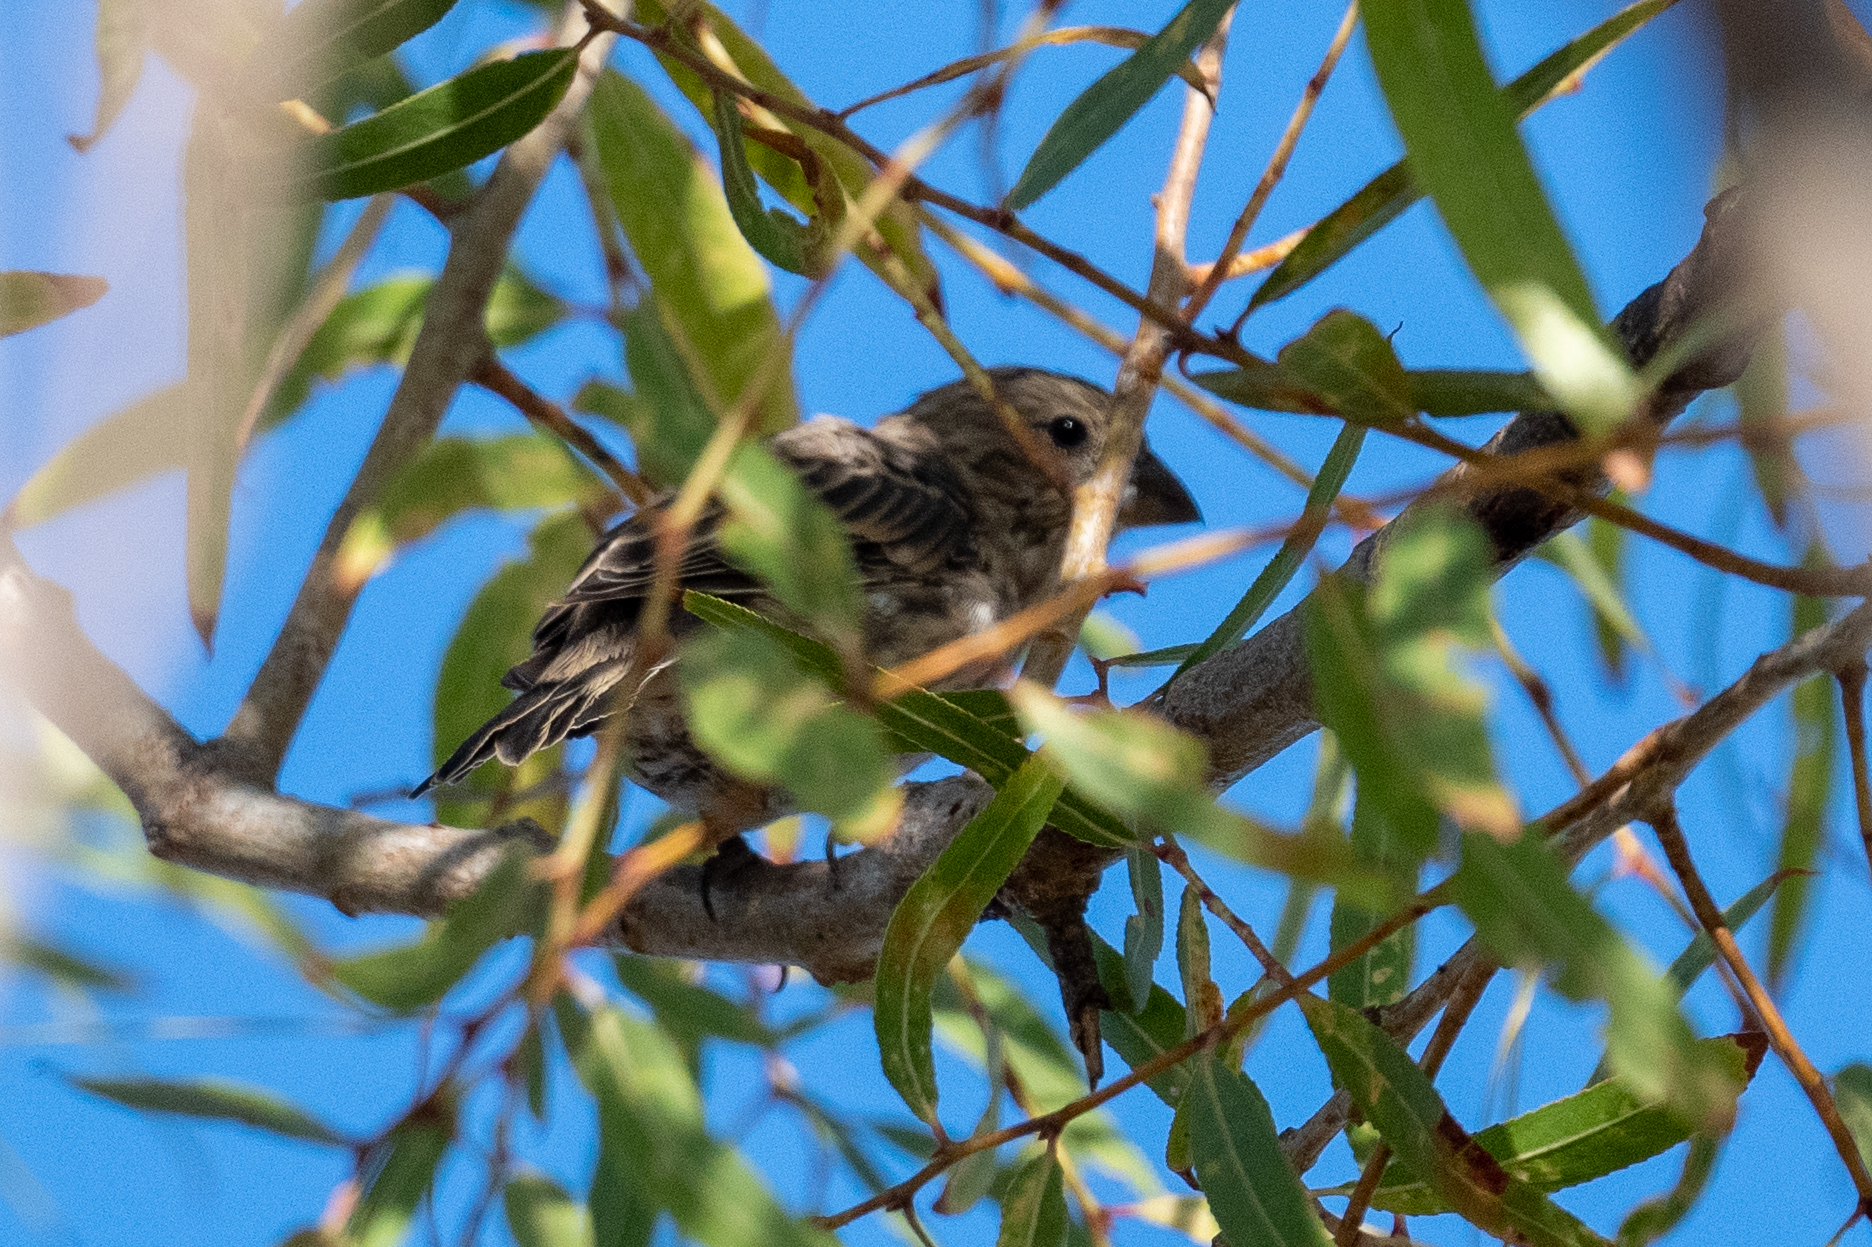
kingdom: Animalia
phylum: Chordata
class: Aves
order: Passeriformes
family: Fringillidae
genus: Haemorhous
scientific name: Haemorhous mexicanus
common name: House finch
